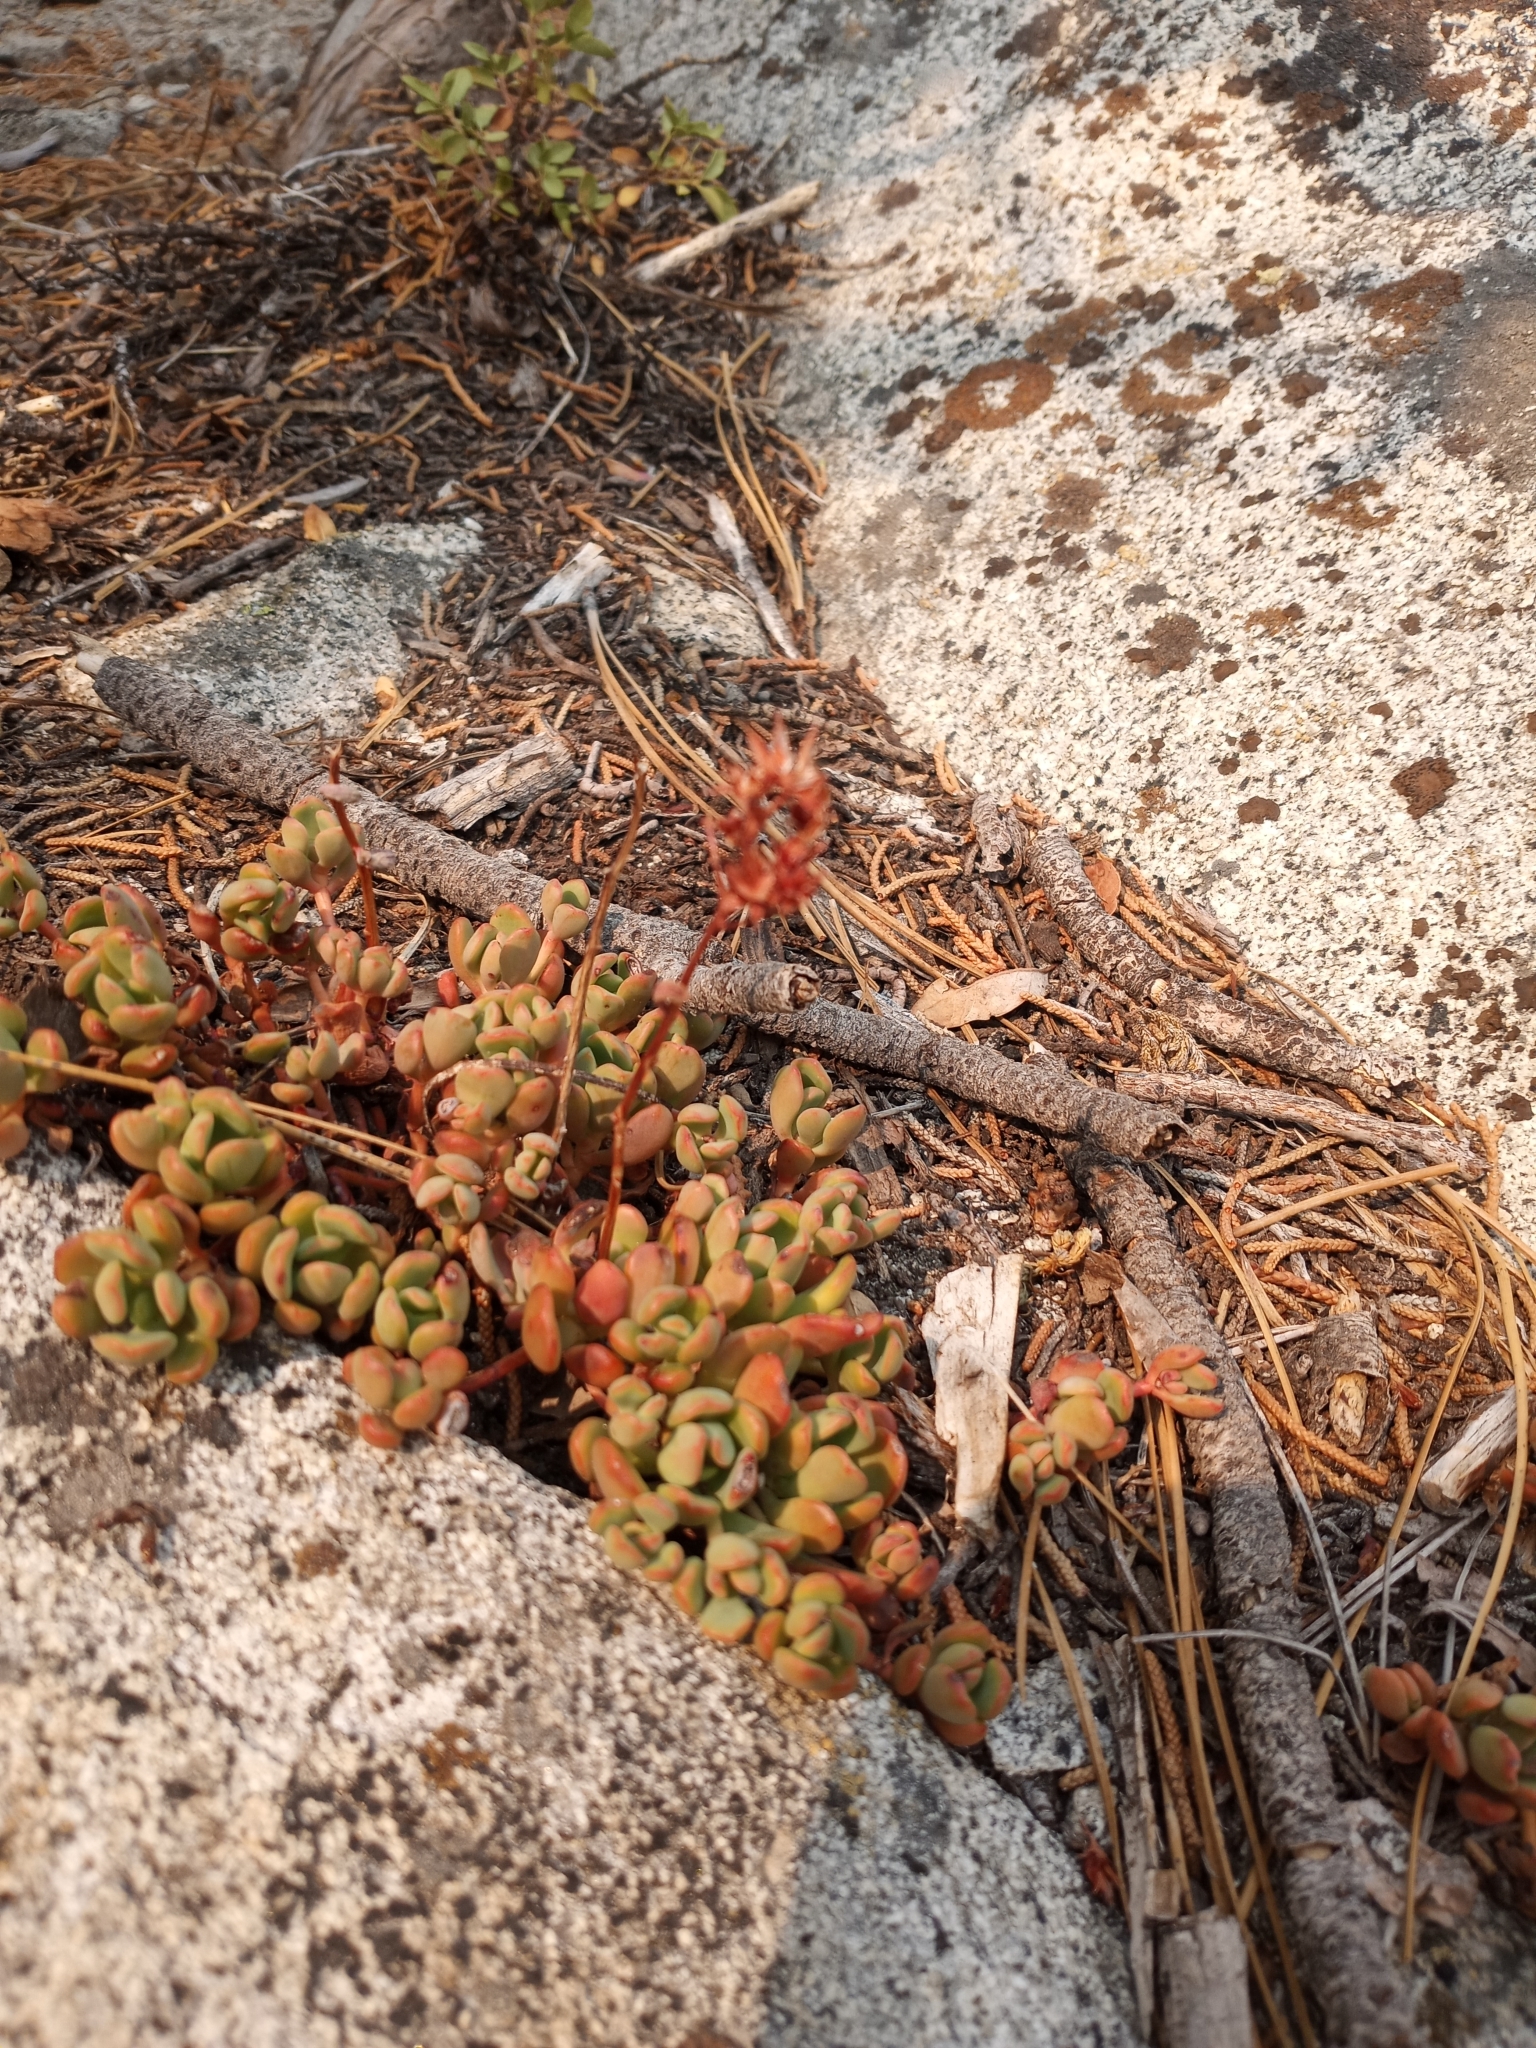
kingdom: Plantae
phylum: Tracheophyta
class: Magnoliopsida
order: Saxifragales
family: Crassulaceae
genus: Sedum
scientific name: Sedum obtusatum
